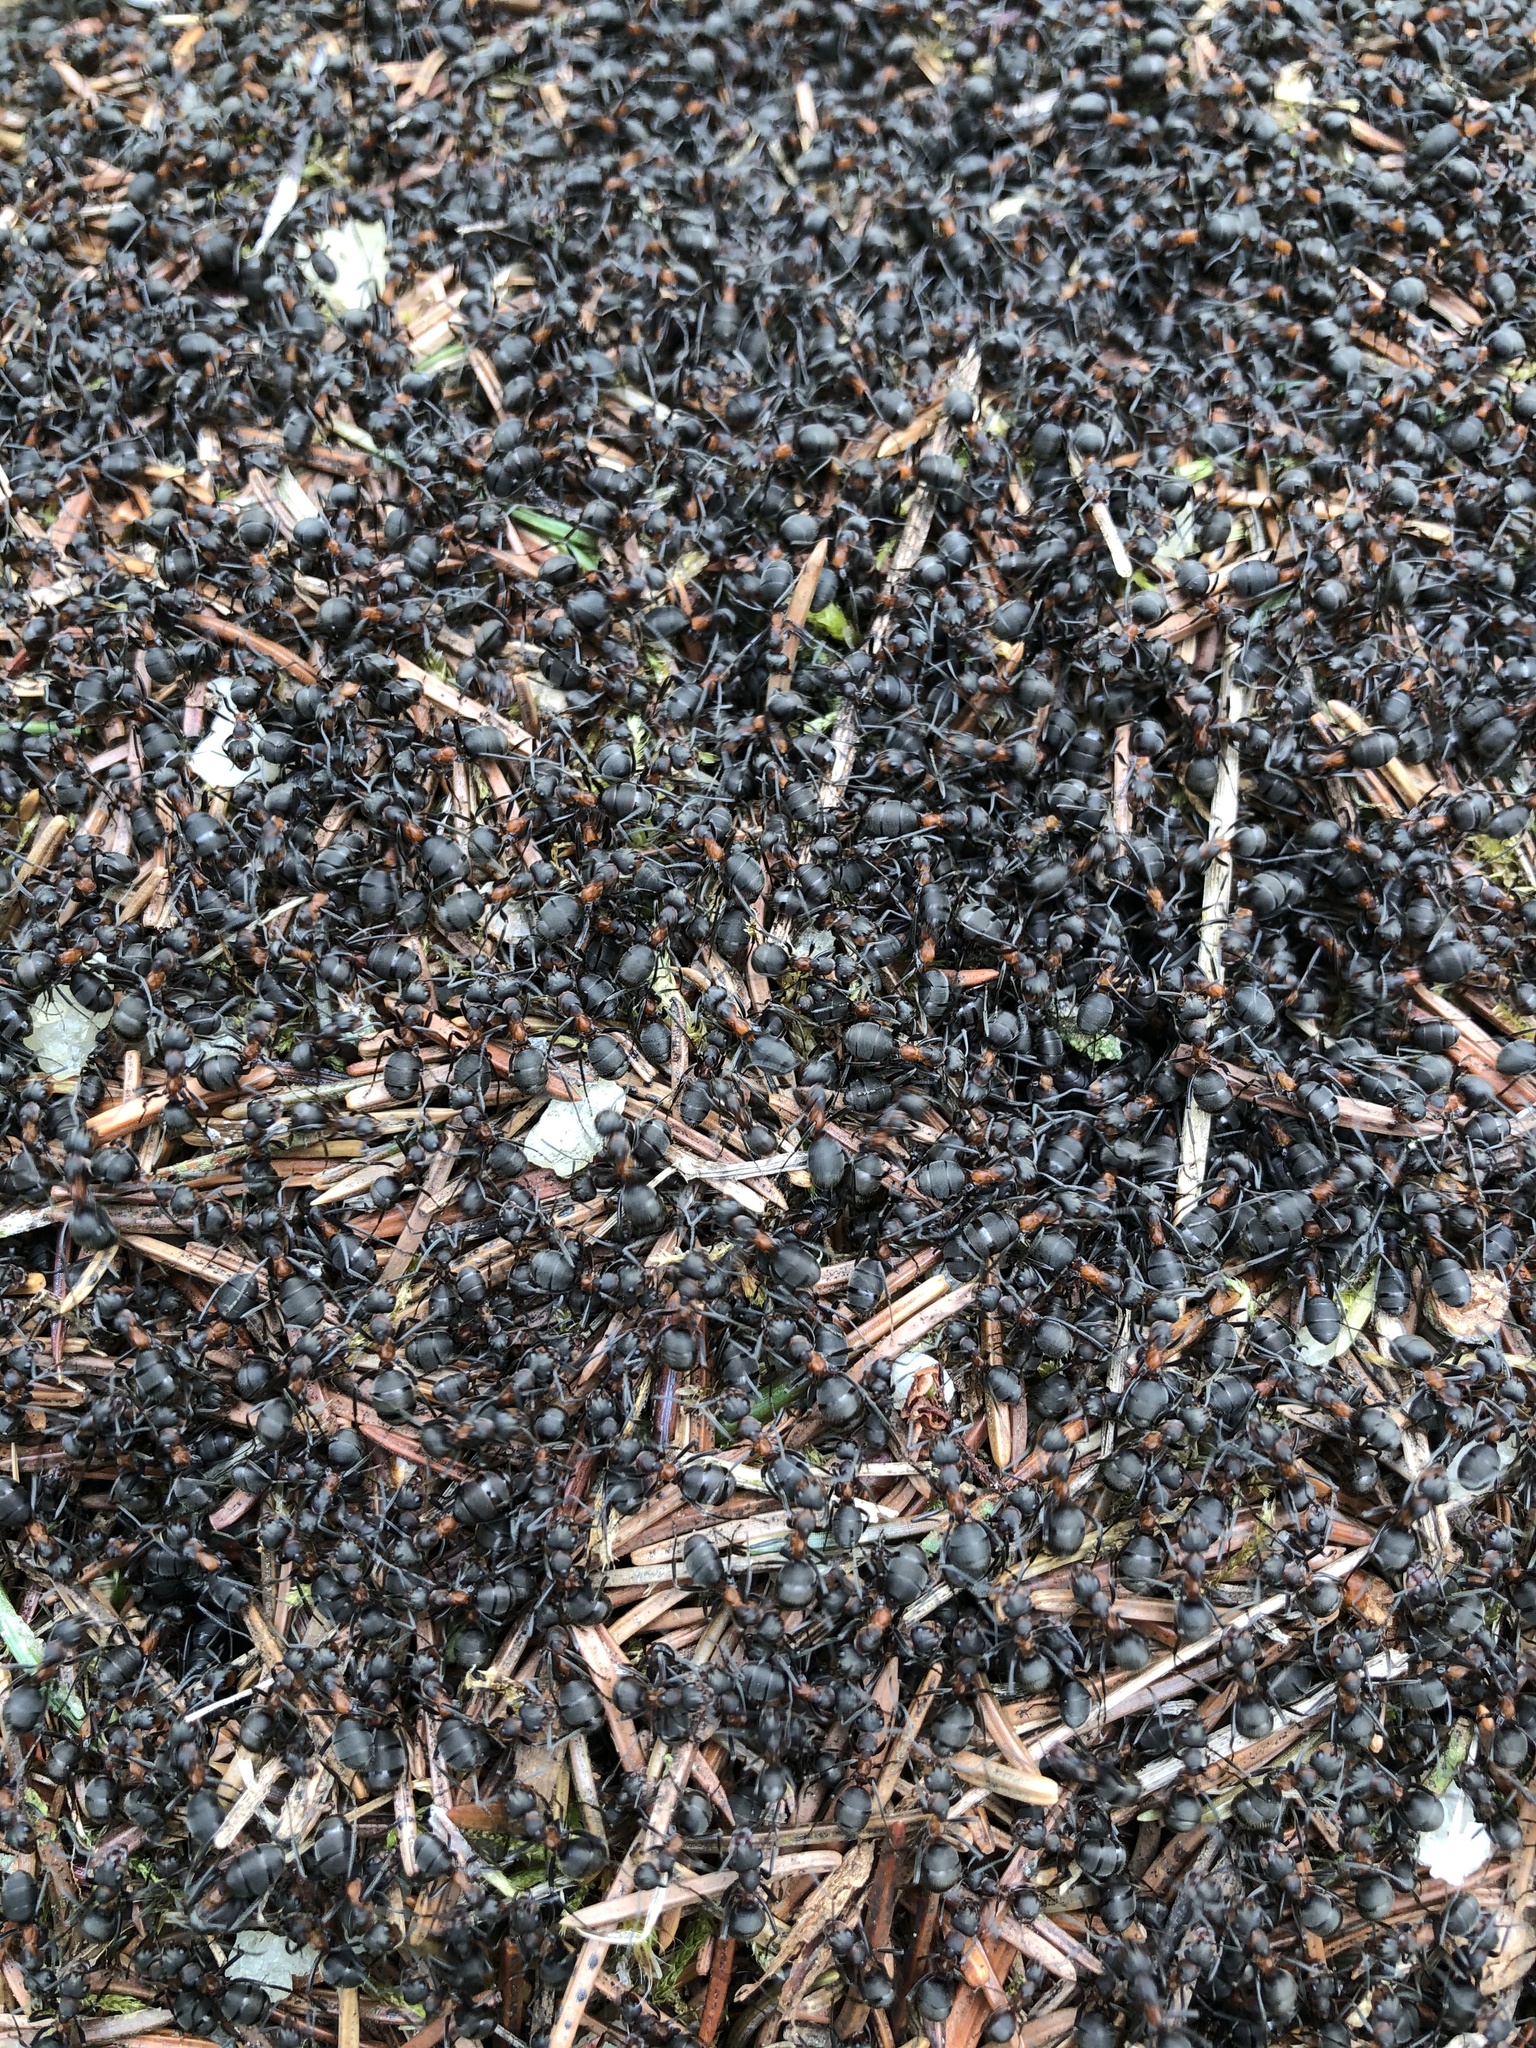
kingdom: Animalia
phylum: Arthropoda
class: Insecta
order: Hymenoptera
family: Formicidae
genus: Formica
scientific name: Formica pratensis
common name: European red wood ant
